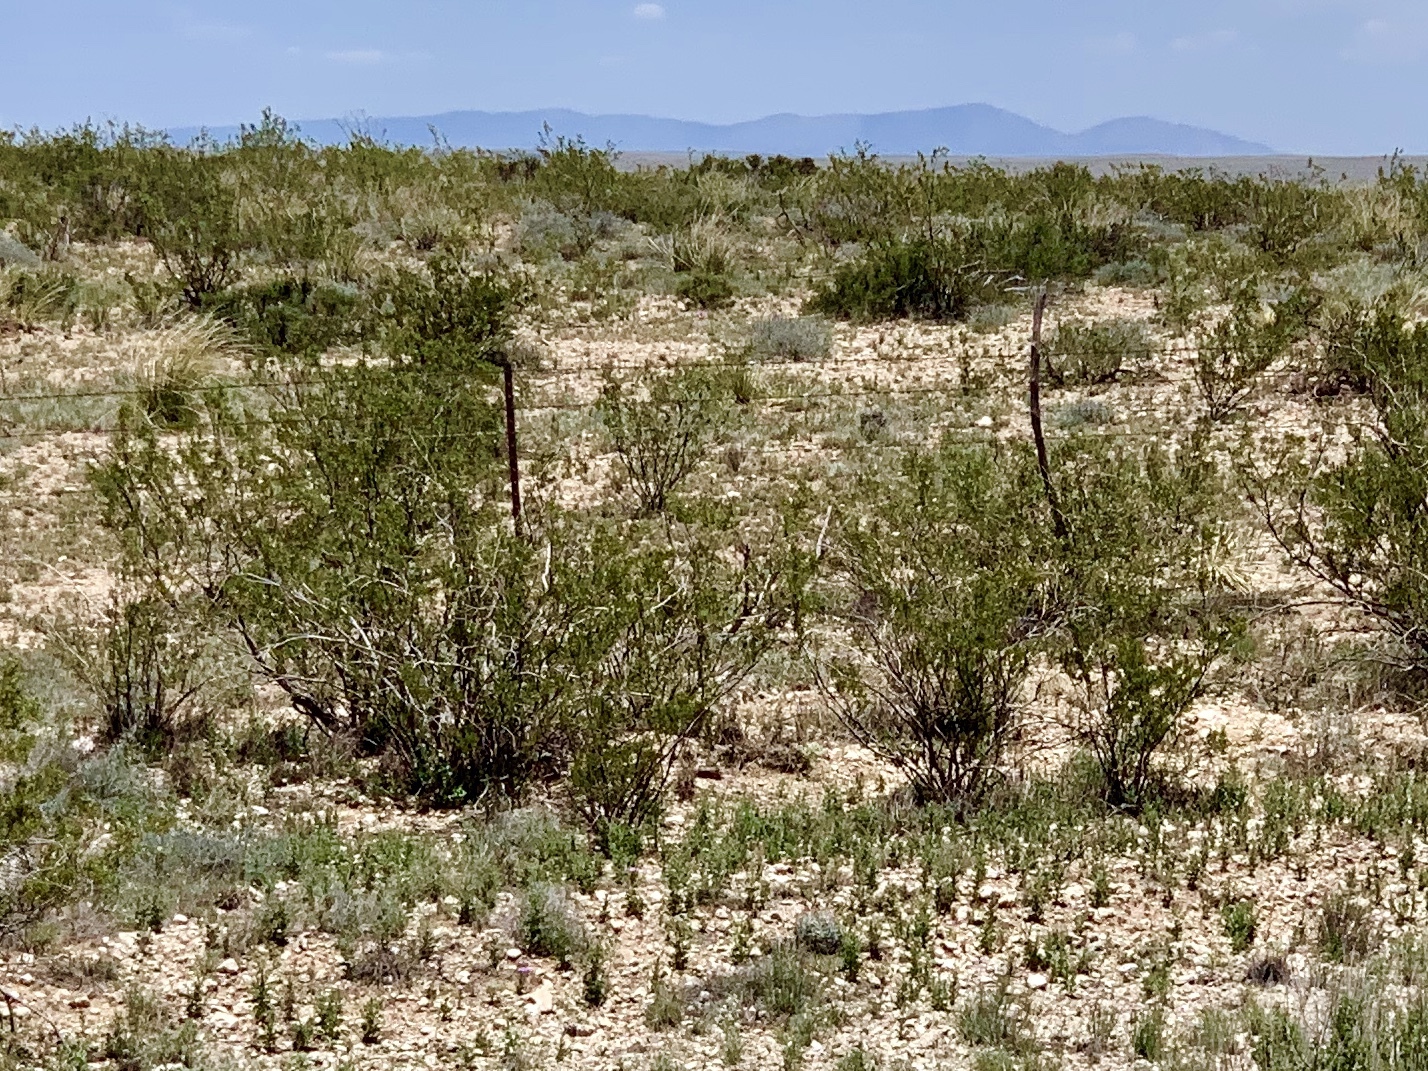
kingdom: Plantae
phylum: Tracheophyta
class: Magnoliopsida
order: Zygophyllales
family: Zygophyllaceae
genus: Larrea
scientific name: Larrea tridentata
